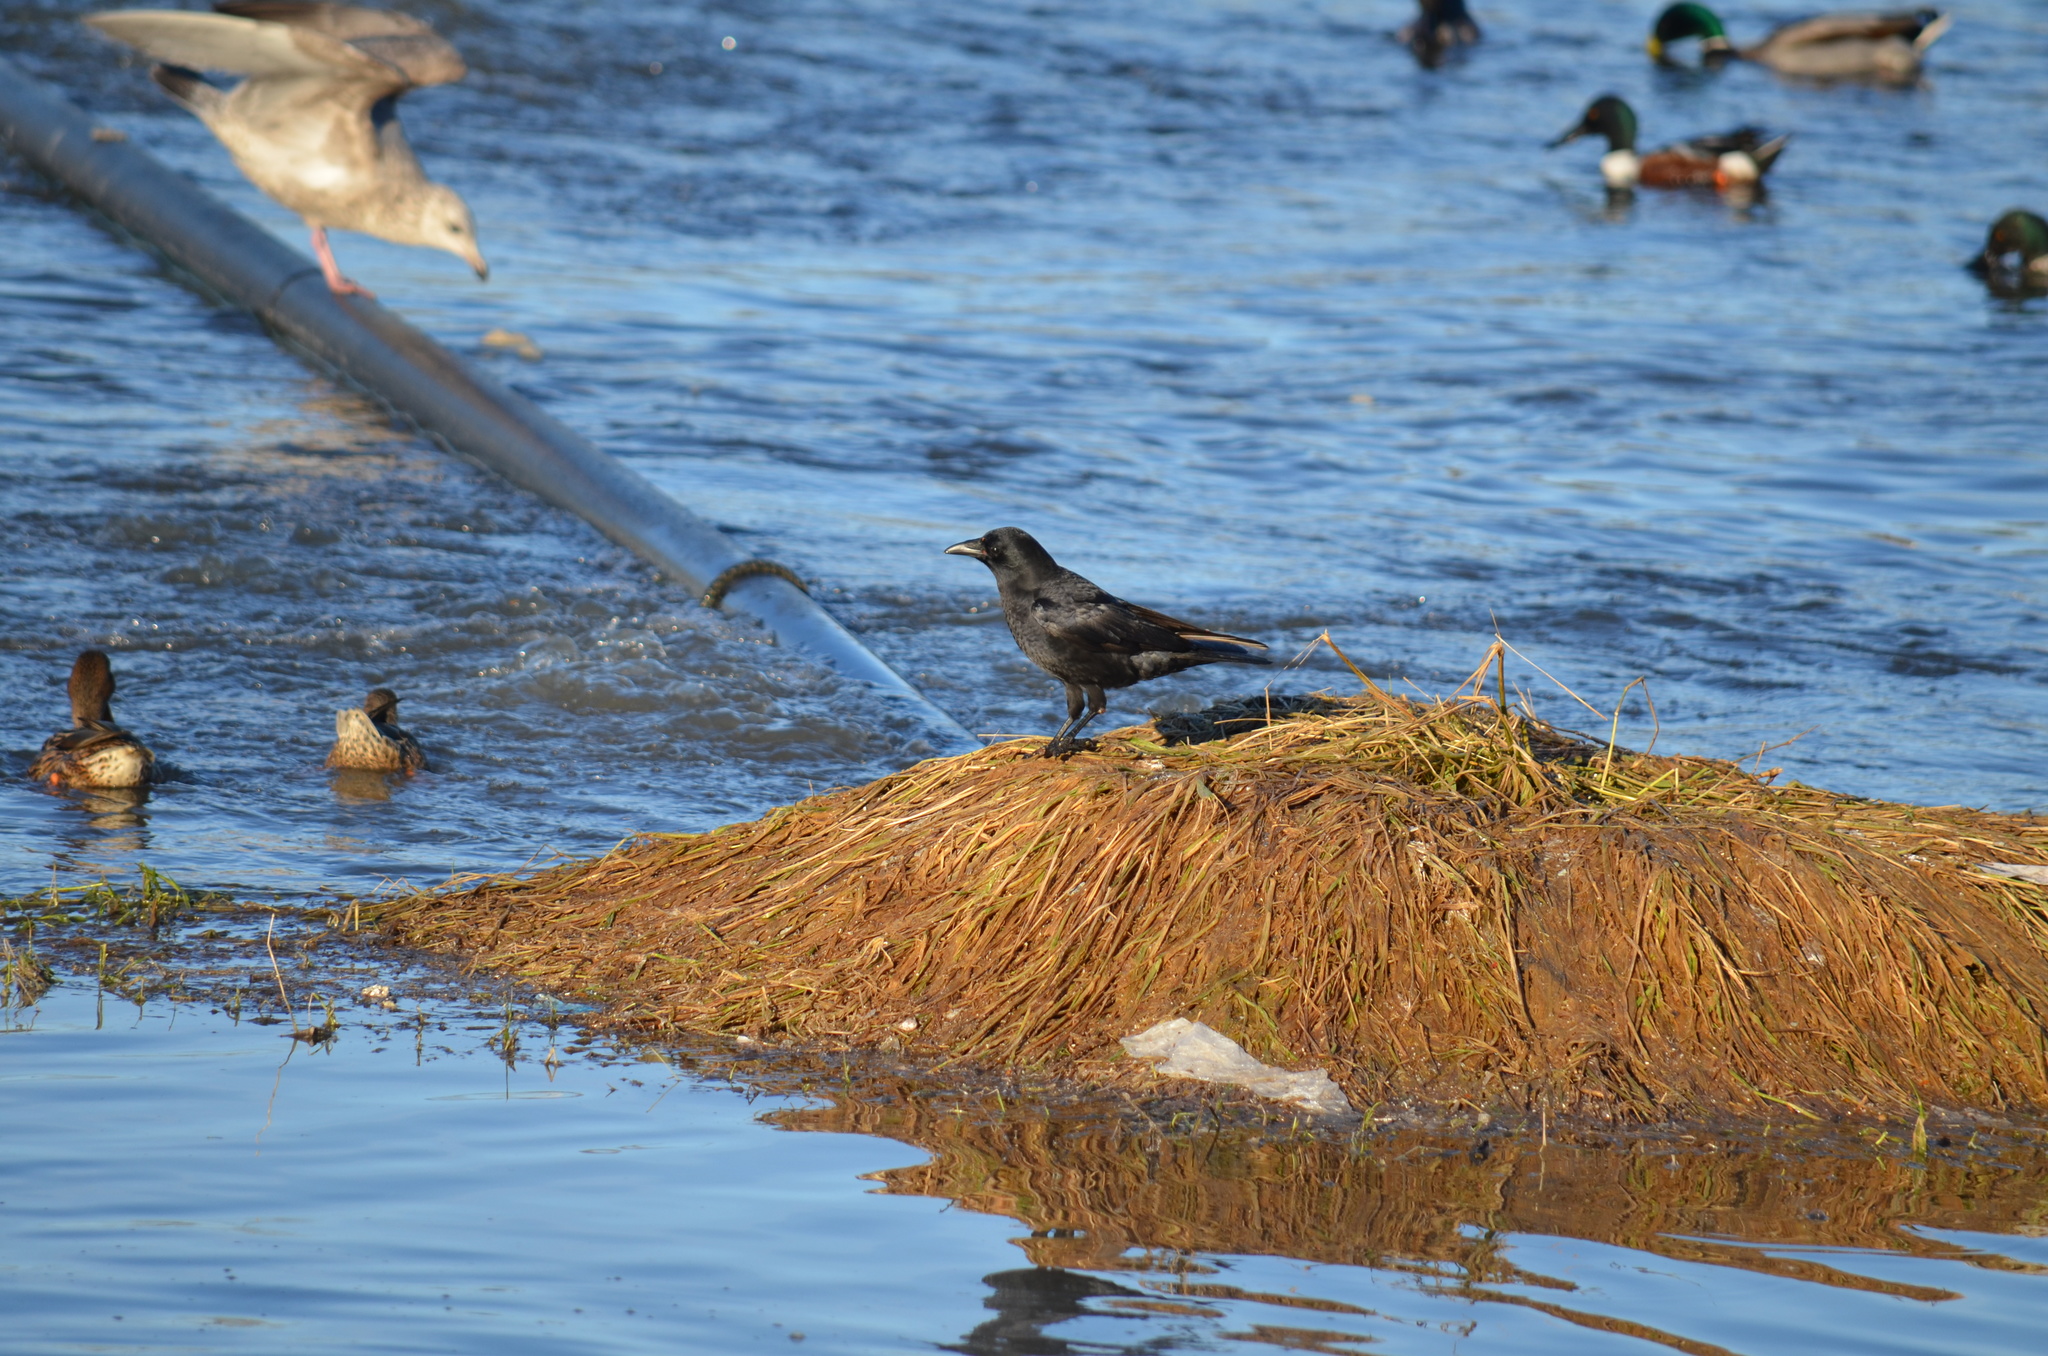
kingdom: Animalia
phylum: Chordata
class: Aves
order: Passeriformes
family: Corvidae
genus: Corvus
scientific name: Corvus brachyrhynchos
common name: American crow
